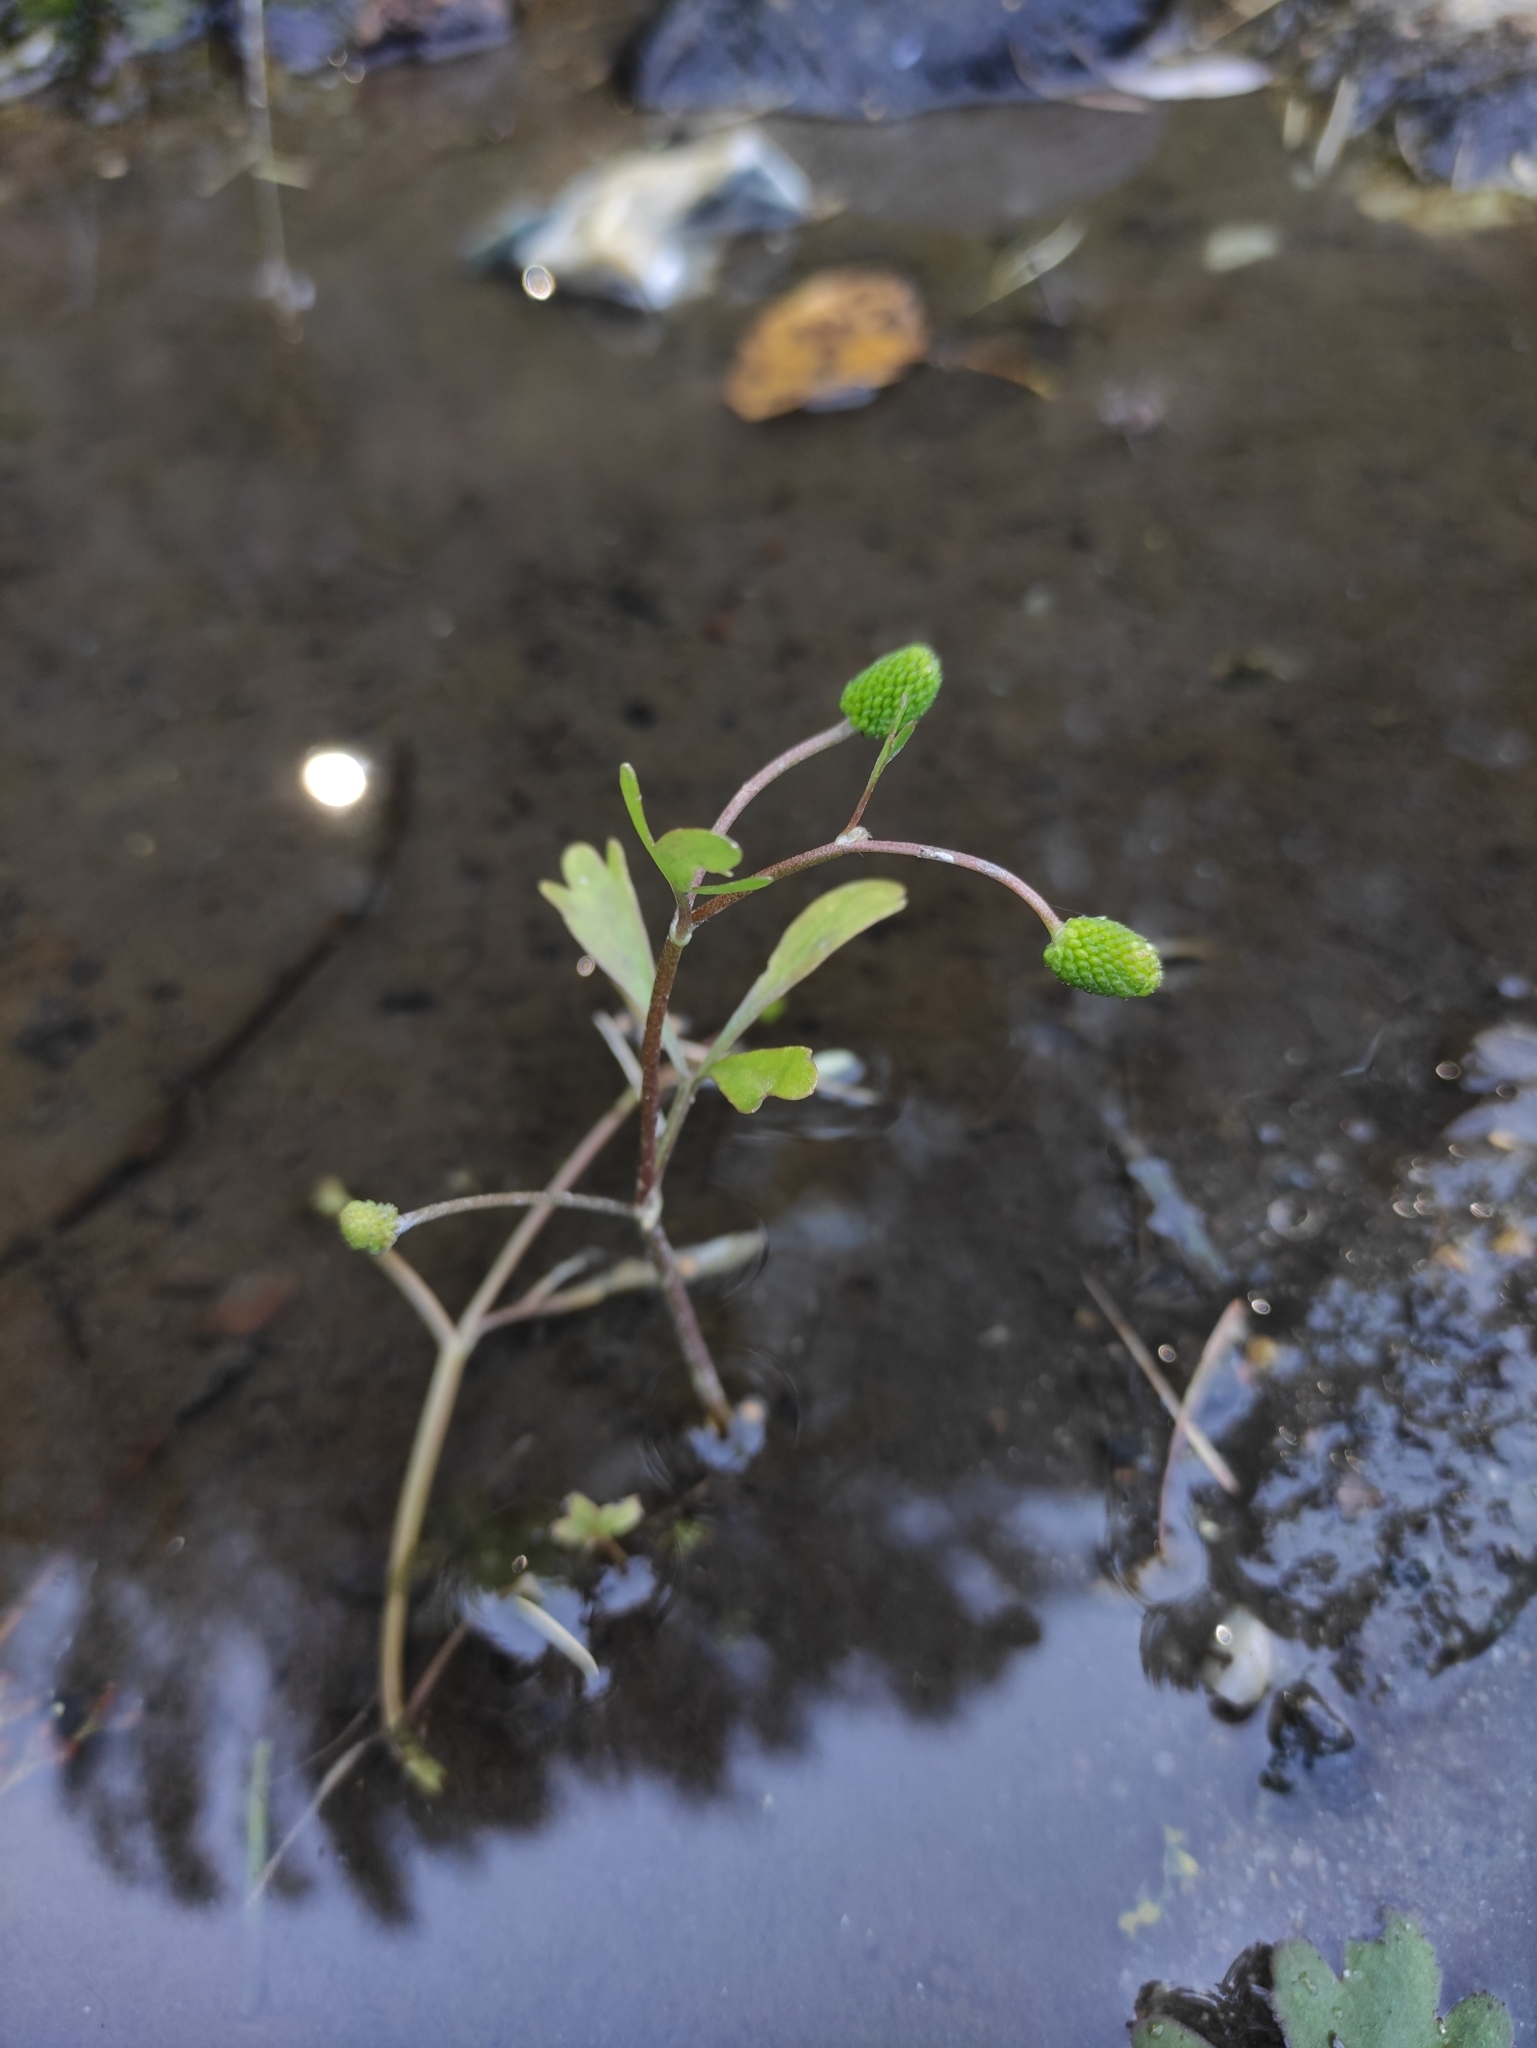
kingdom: Plantae
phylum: Tracheophyta
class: Magnoliopsida
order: Ranunculales
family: Ranunculaceae
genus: Ranunculus
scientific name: Ranunculus sceleratus
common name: Celery-leaved buttercup
